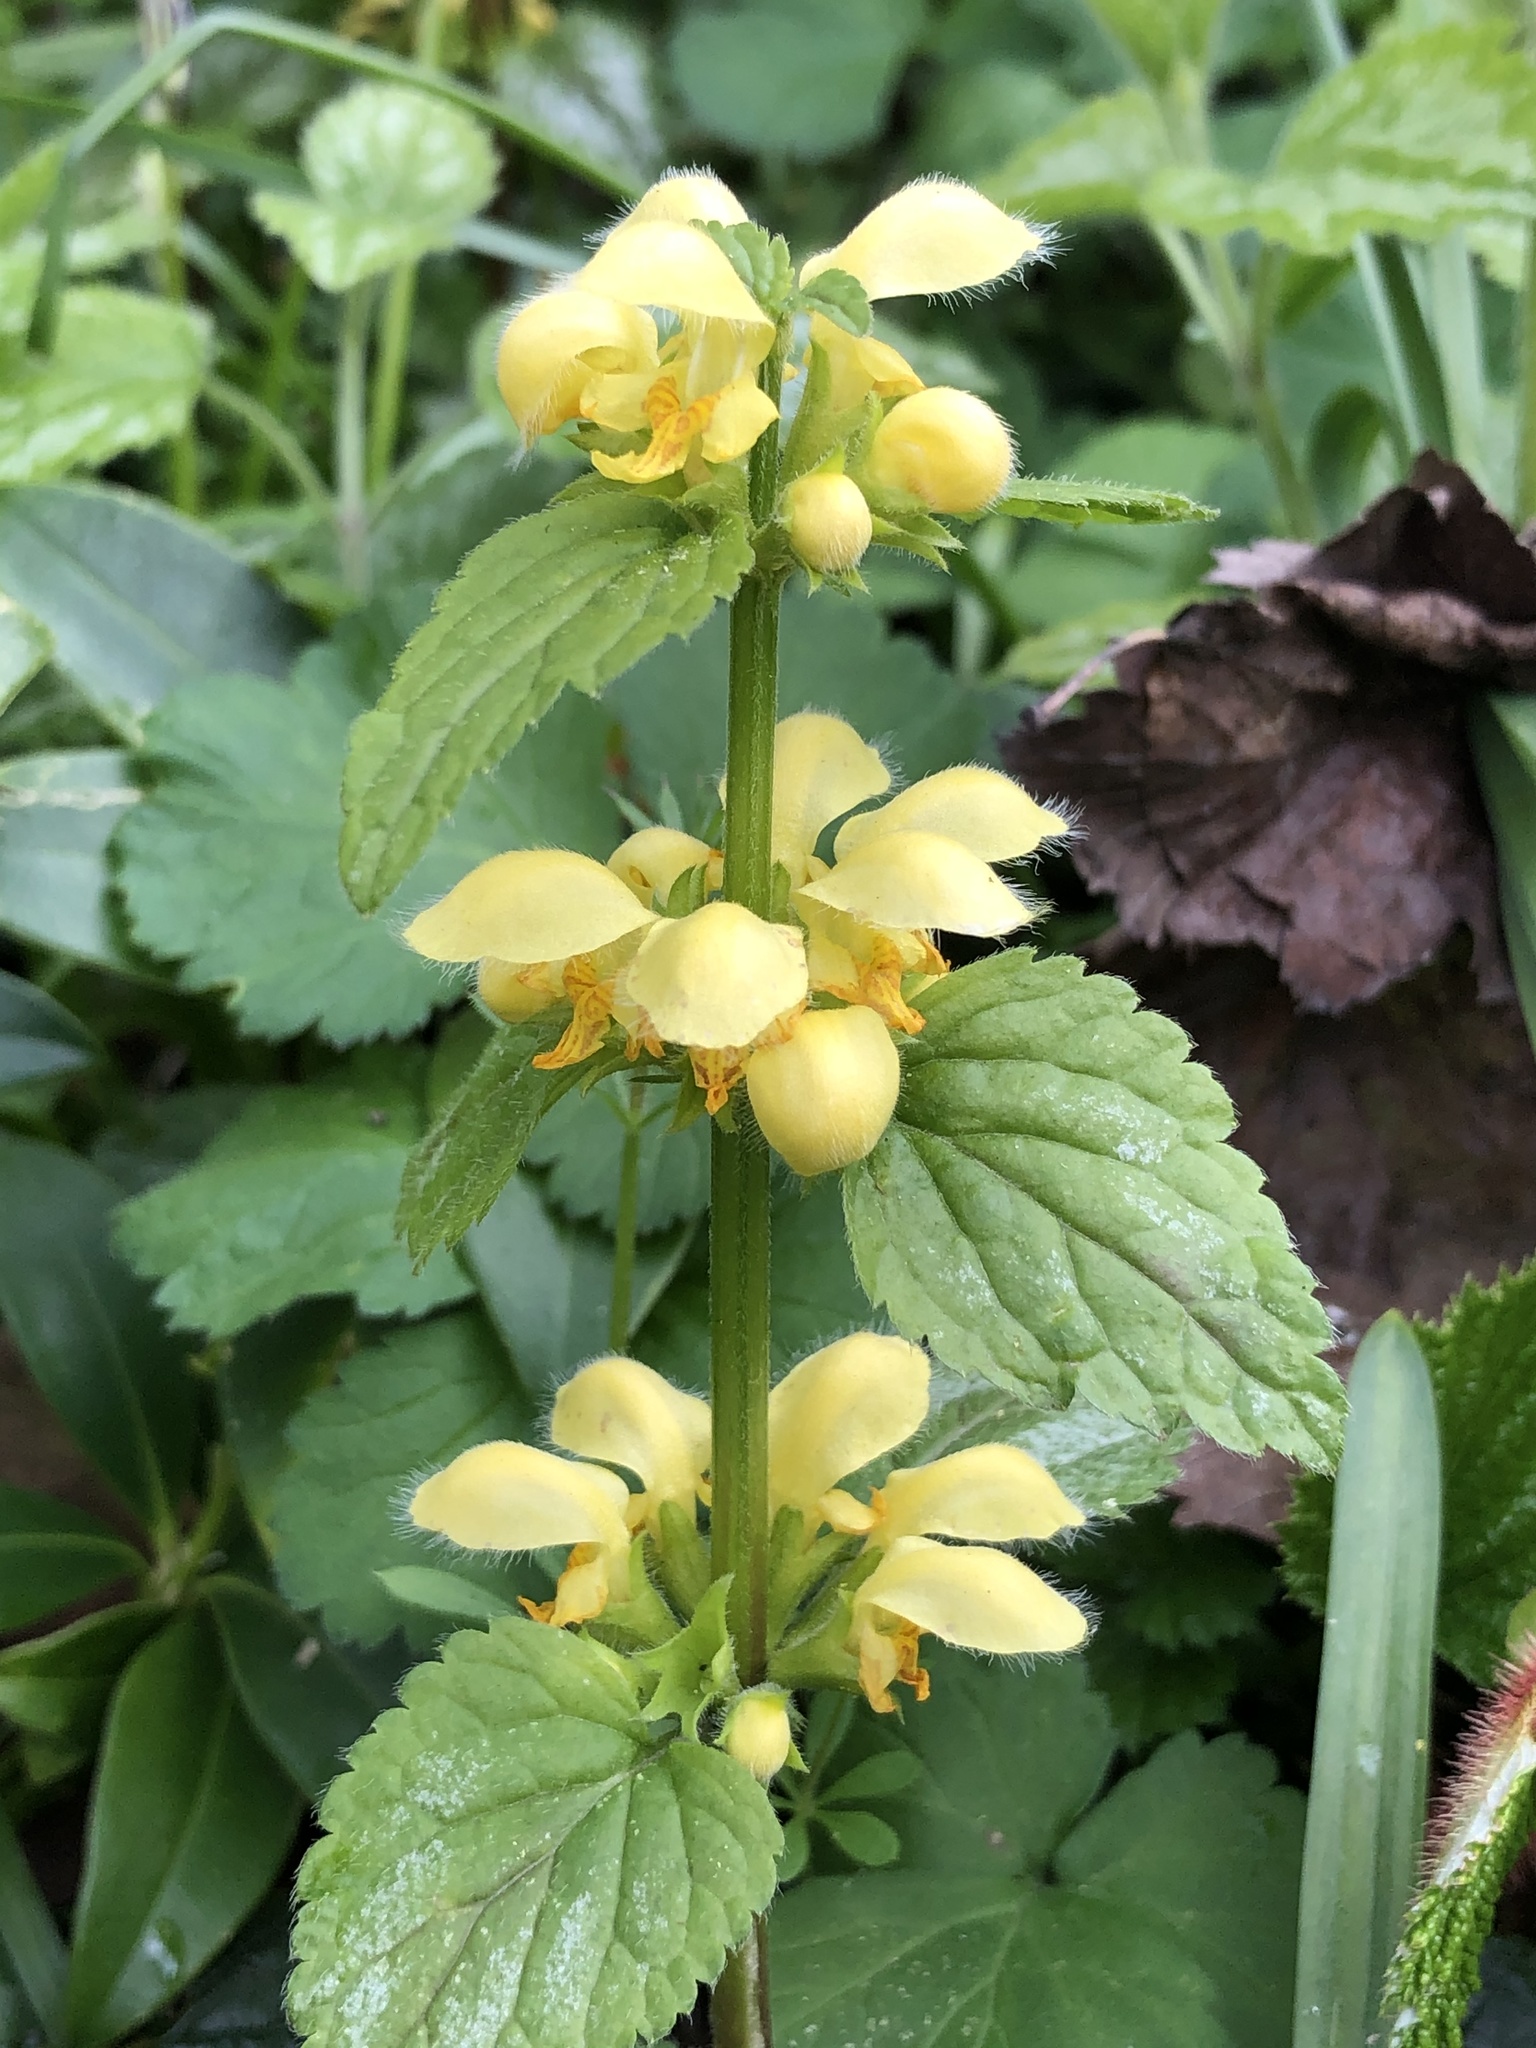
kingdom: Plantae
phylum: Tracheophyta
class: Magnoliopsida
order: Lamiales
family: Lamiaceae
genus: Lamium
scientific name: Lamium galeobdolon
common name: Yellow archangel
